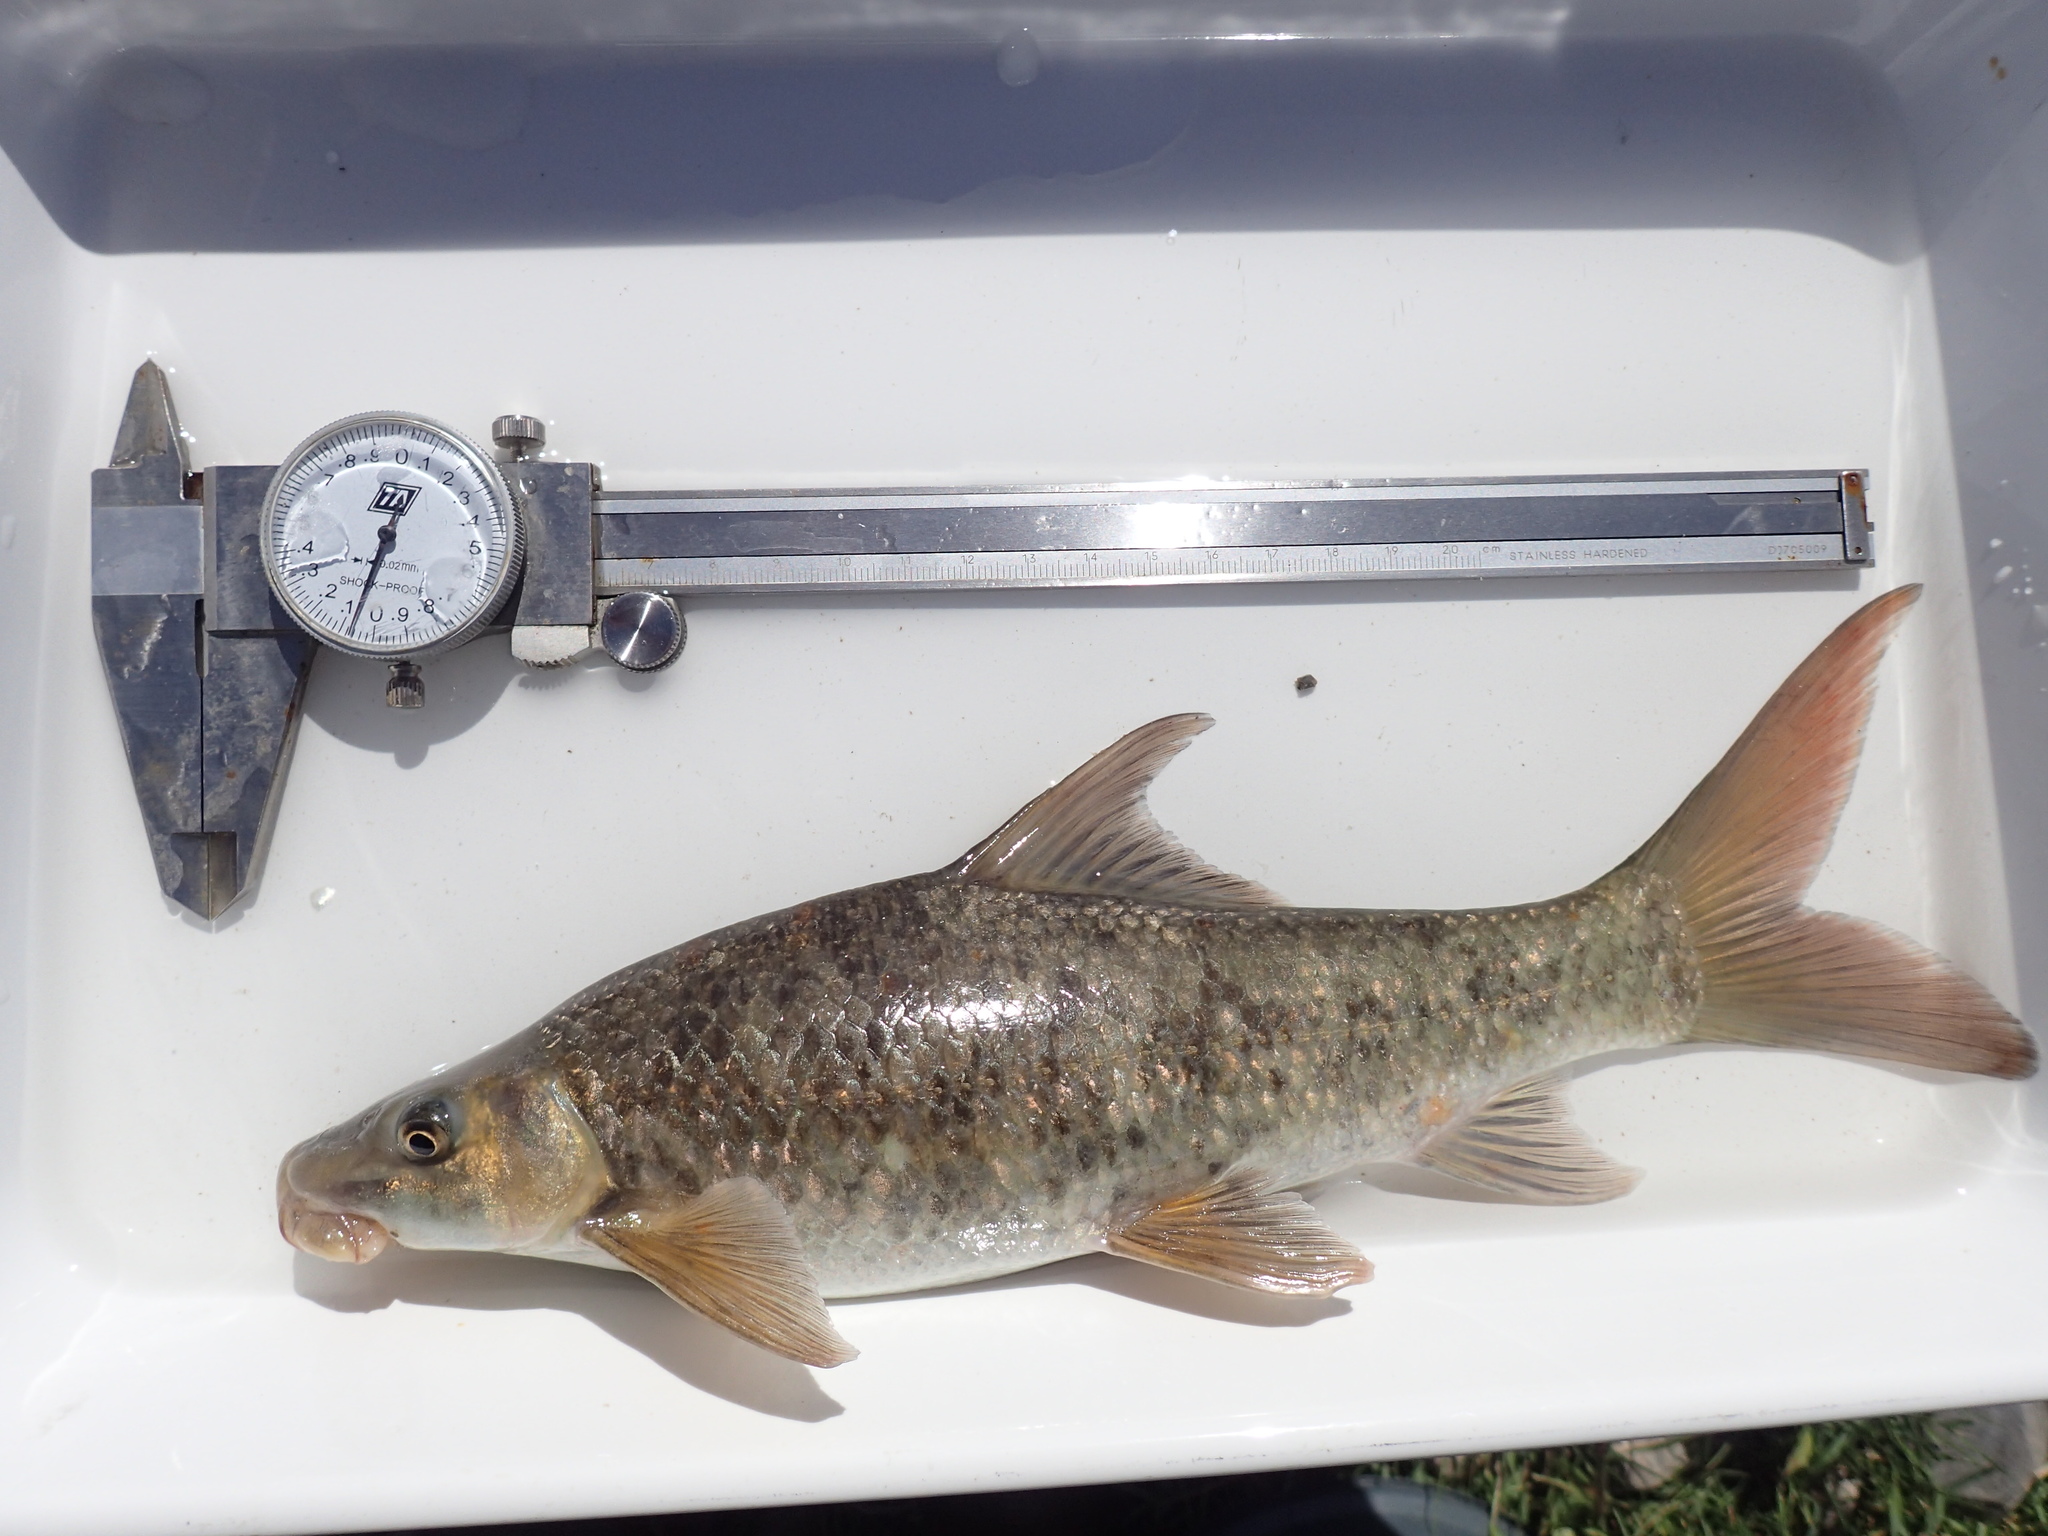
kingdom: Animalia
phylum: Chordata
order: Cypriniformes
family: Cyprinidae
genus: Labeo
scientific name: Labeo capensis
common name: Orange river mudfish
